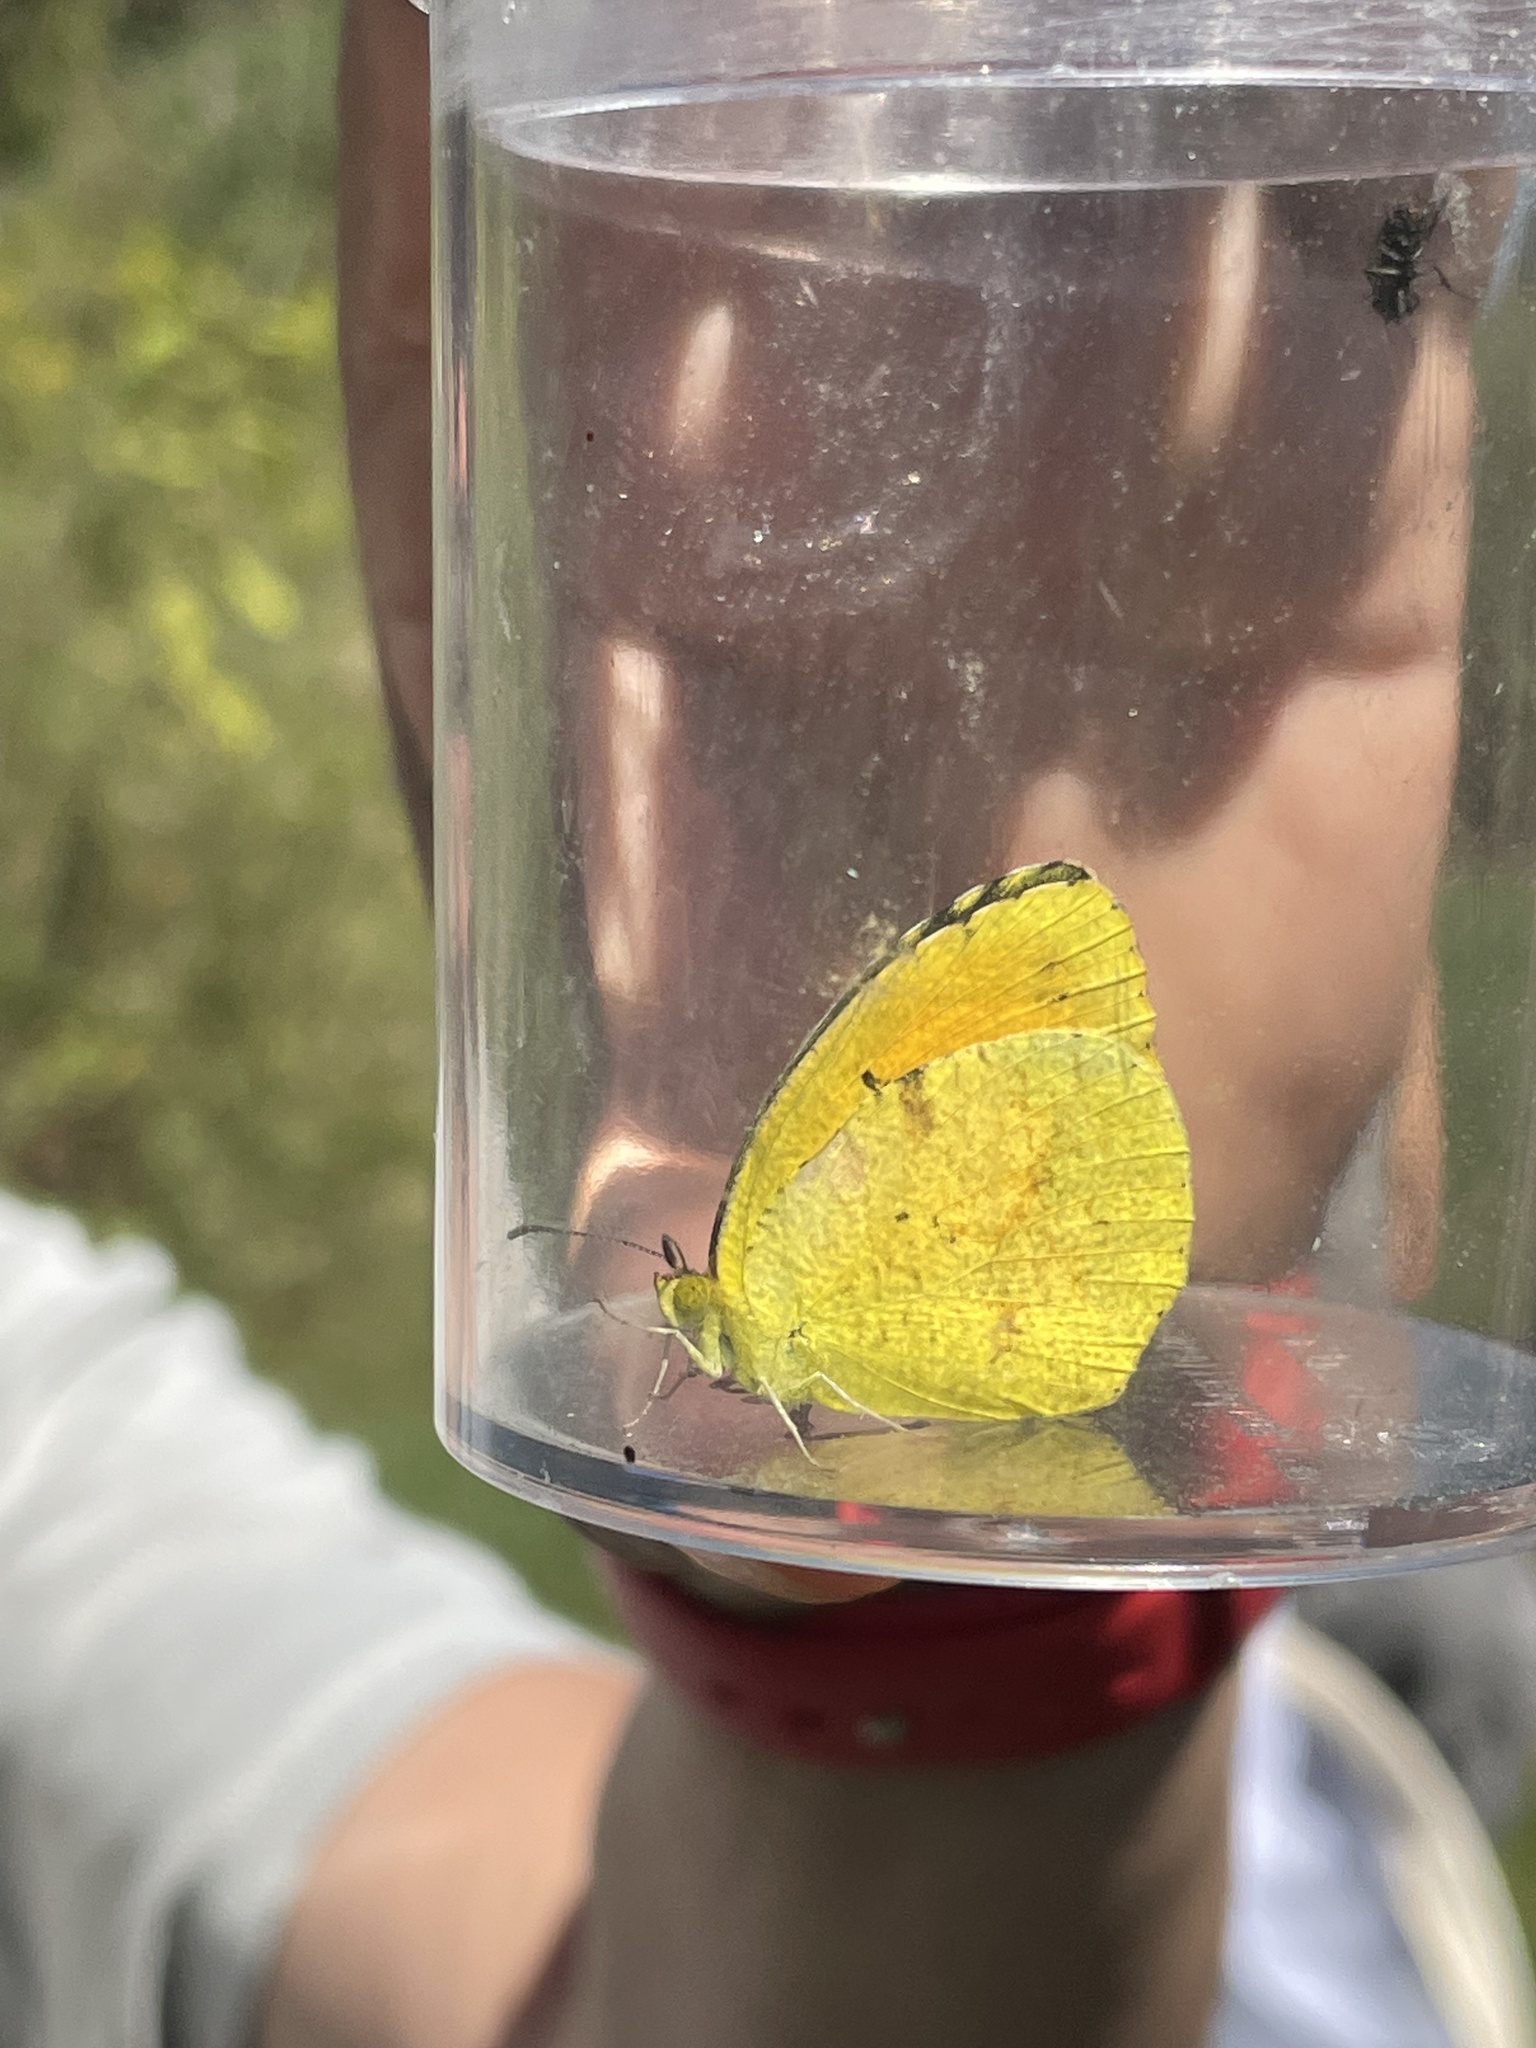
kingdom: Animalia
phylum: Arthropoda
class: Insecta
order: Lepidoptera
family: Pieridae
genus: Abaeis
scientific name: Abaeis nicippe
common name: Sleepy orange
